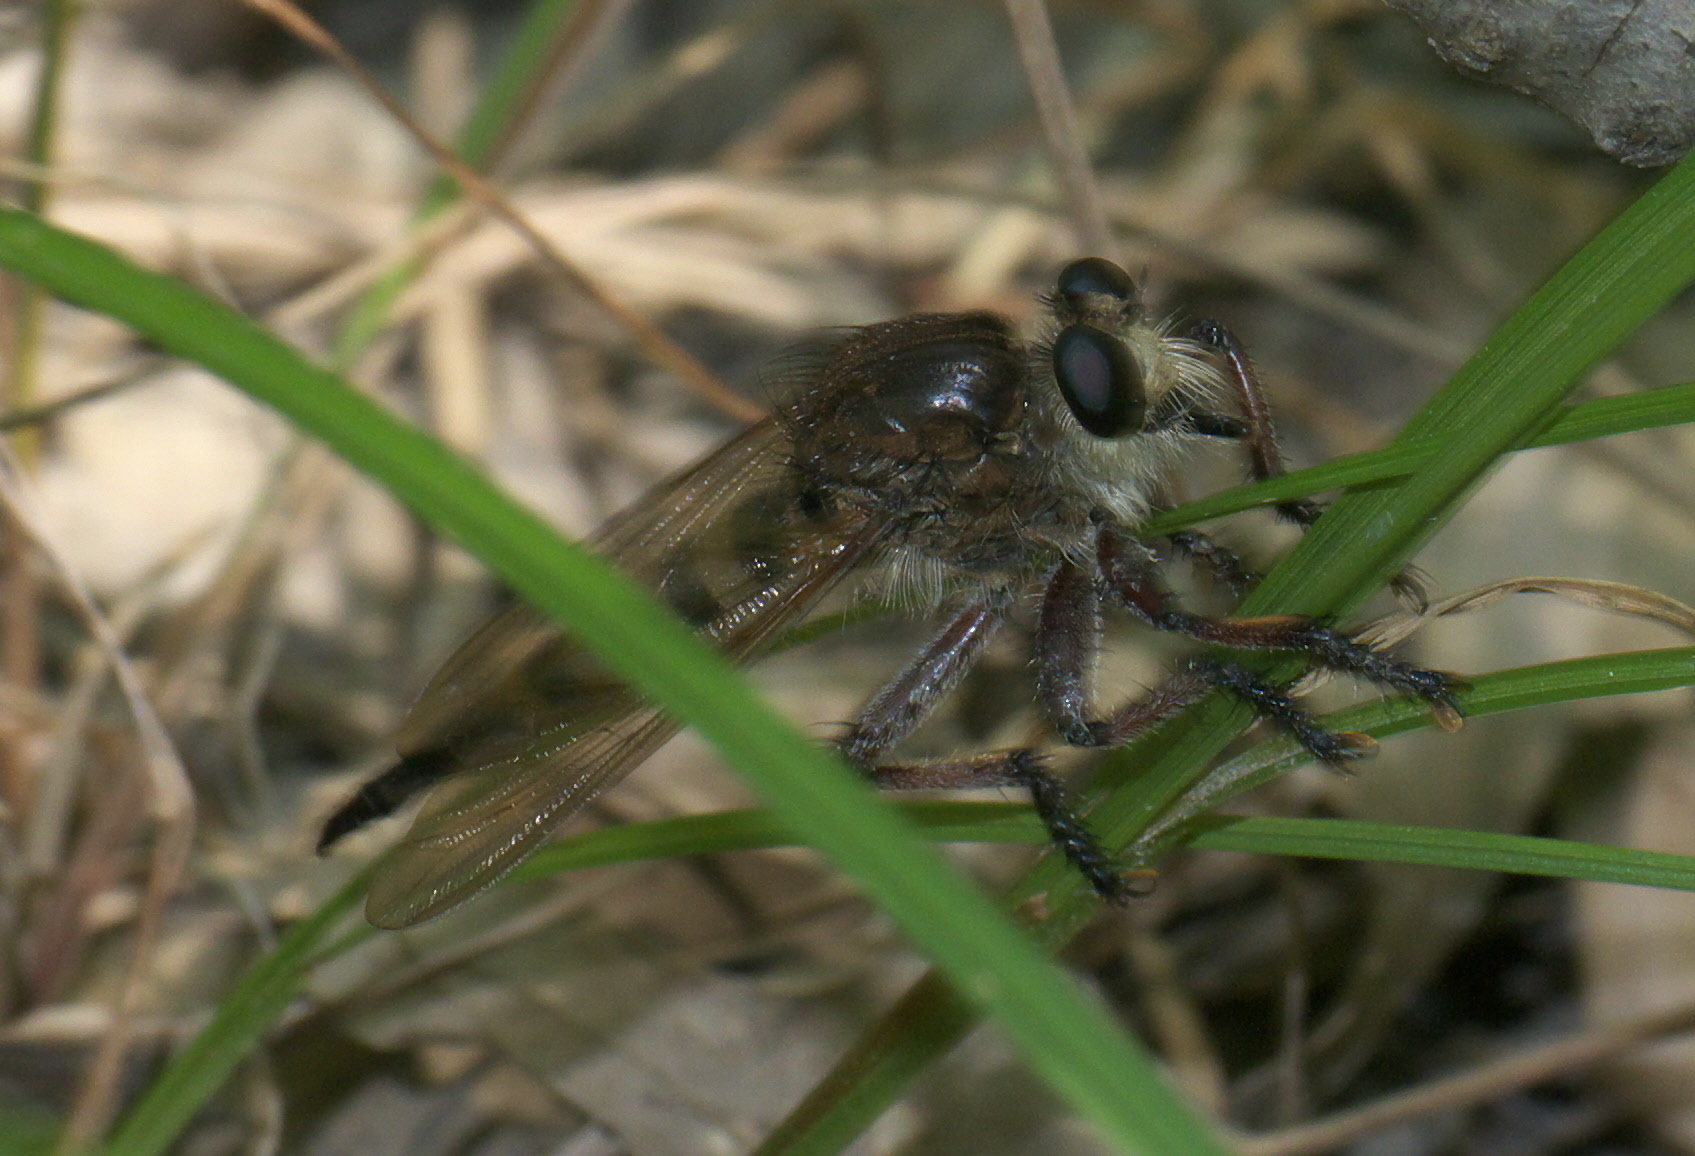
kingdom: Animalia
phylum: Arthropoda
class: Insecta
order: Diptera
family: Asilidae
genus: Promachus
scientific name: Promachus hinei
